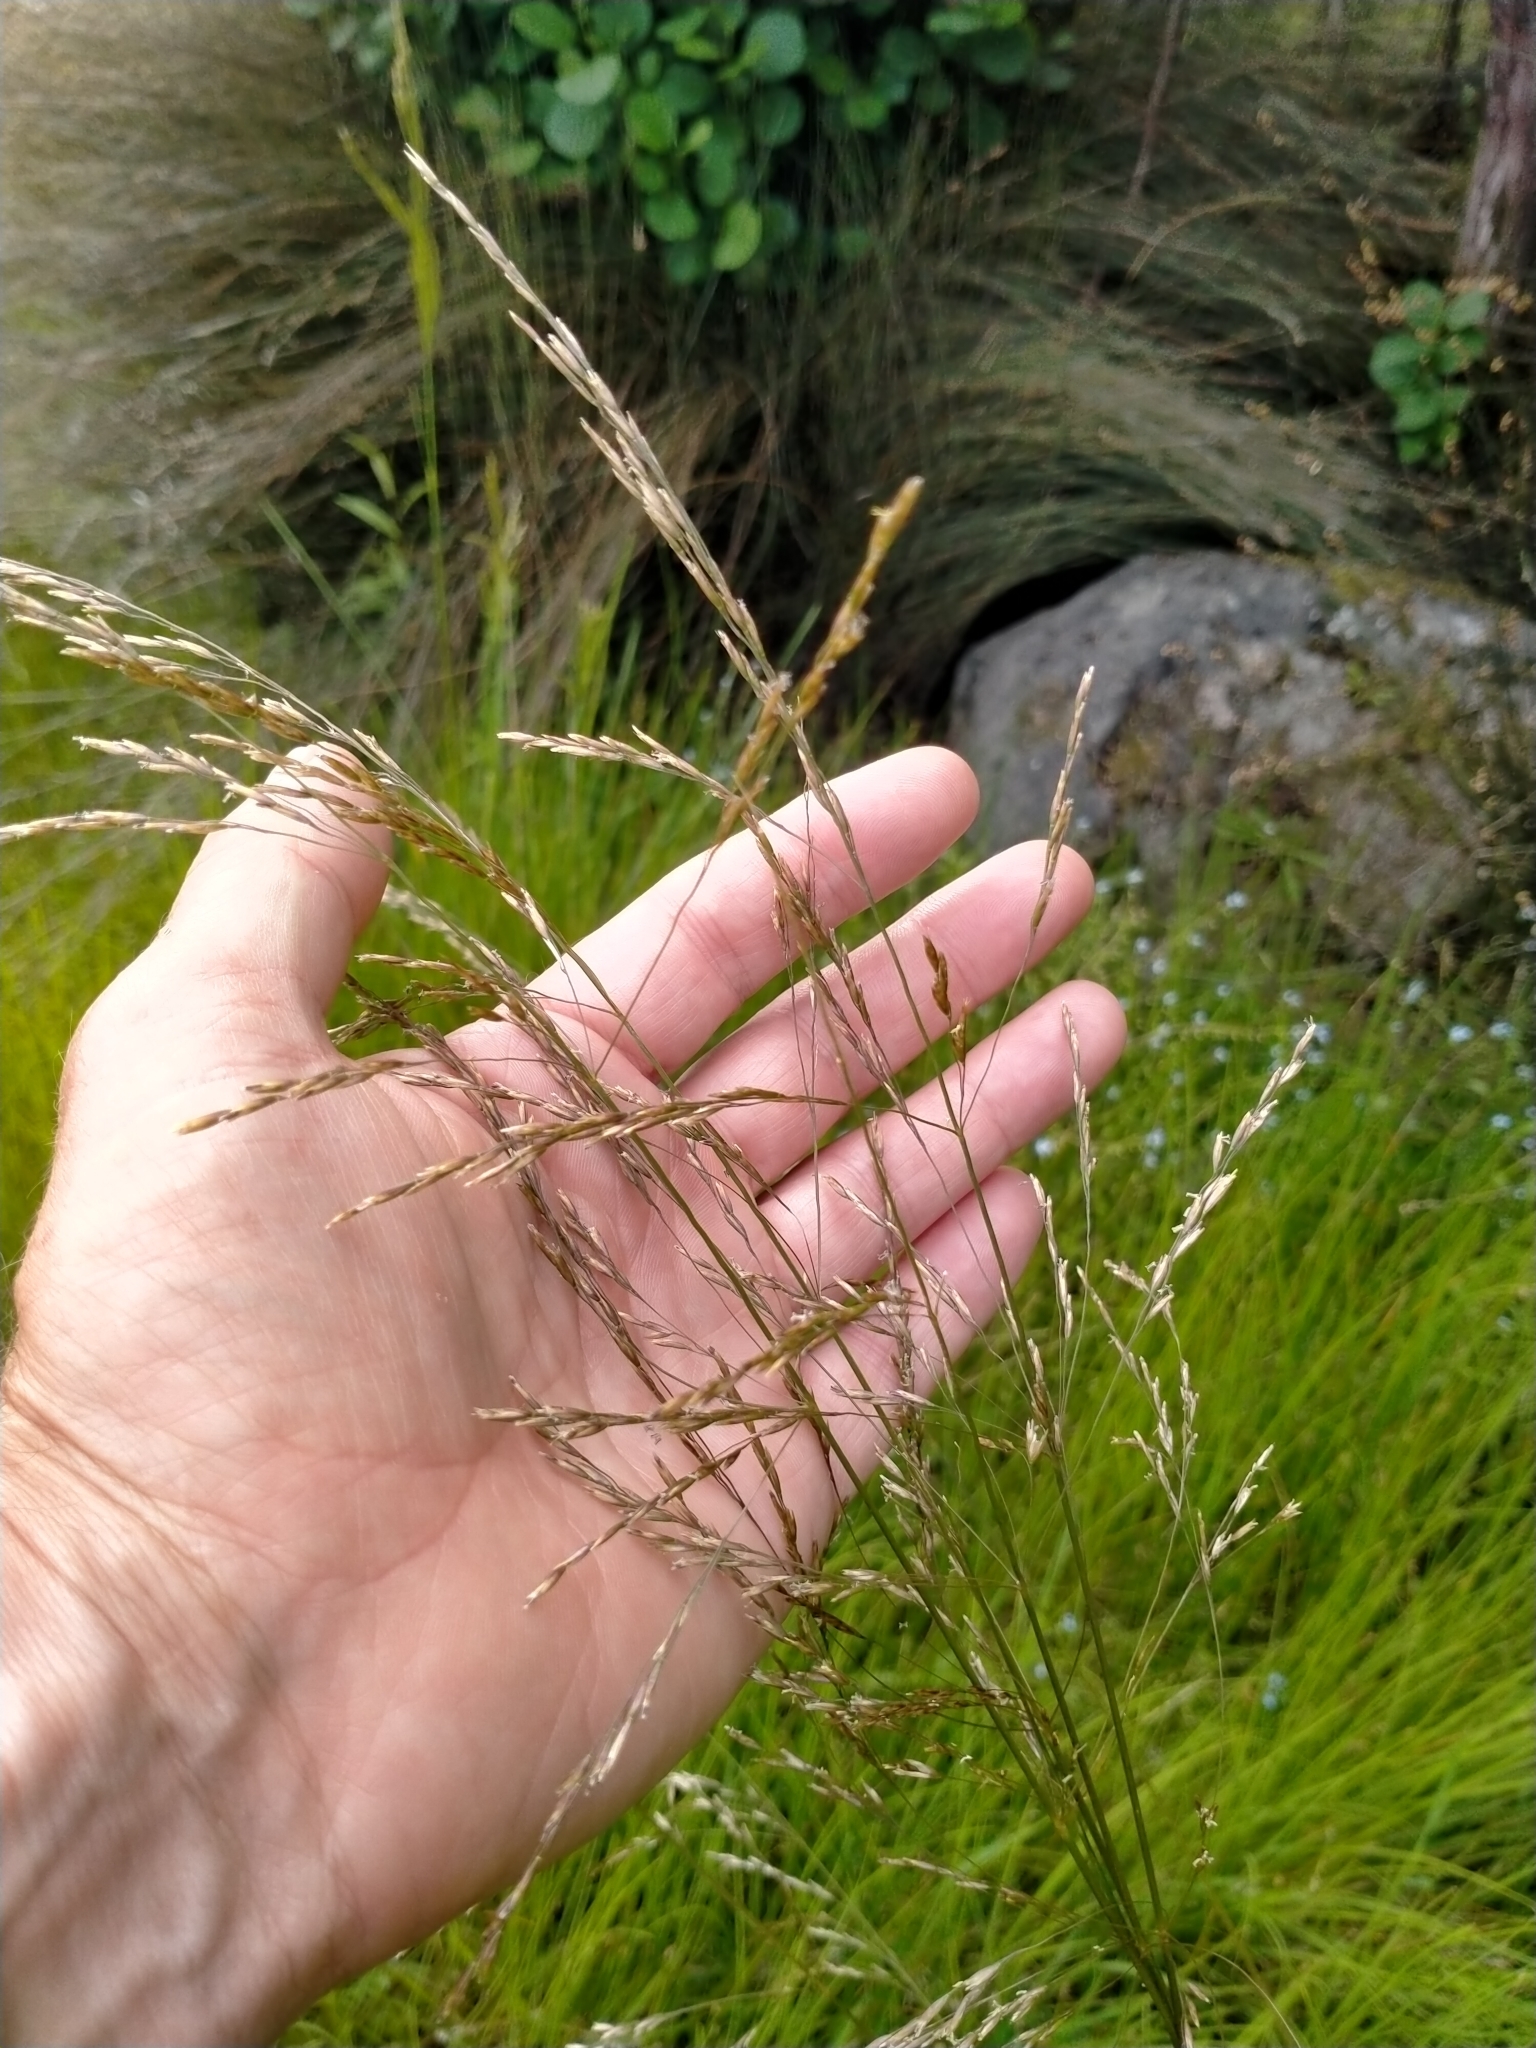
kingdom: Plantae
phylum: Tracheophyta
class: Liliopsida
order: Poales
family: Poaceae
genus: Deschampsia
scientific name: Deschampsia cespitosa
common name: Tufted hair-grass
